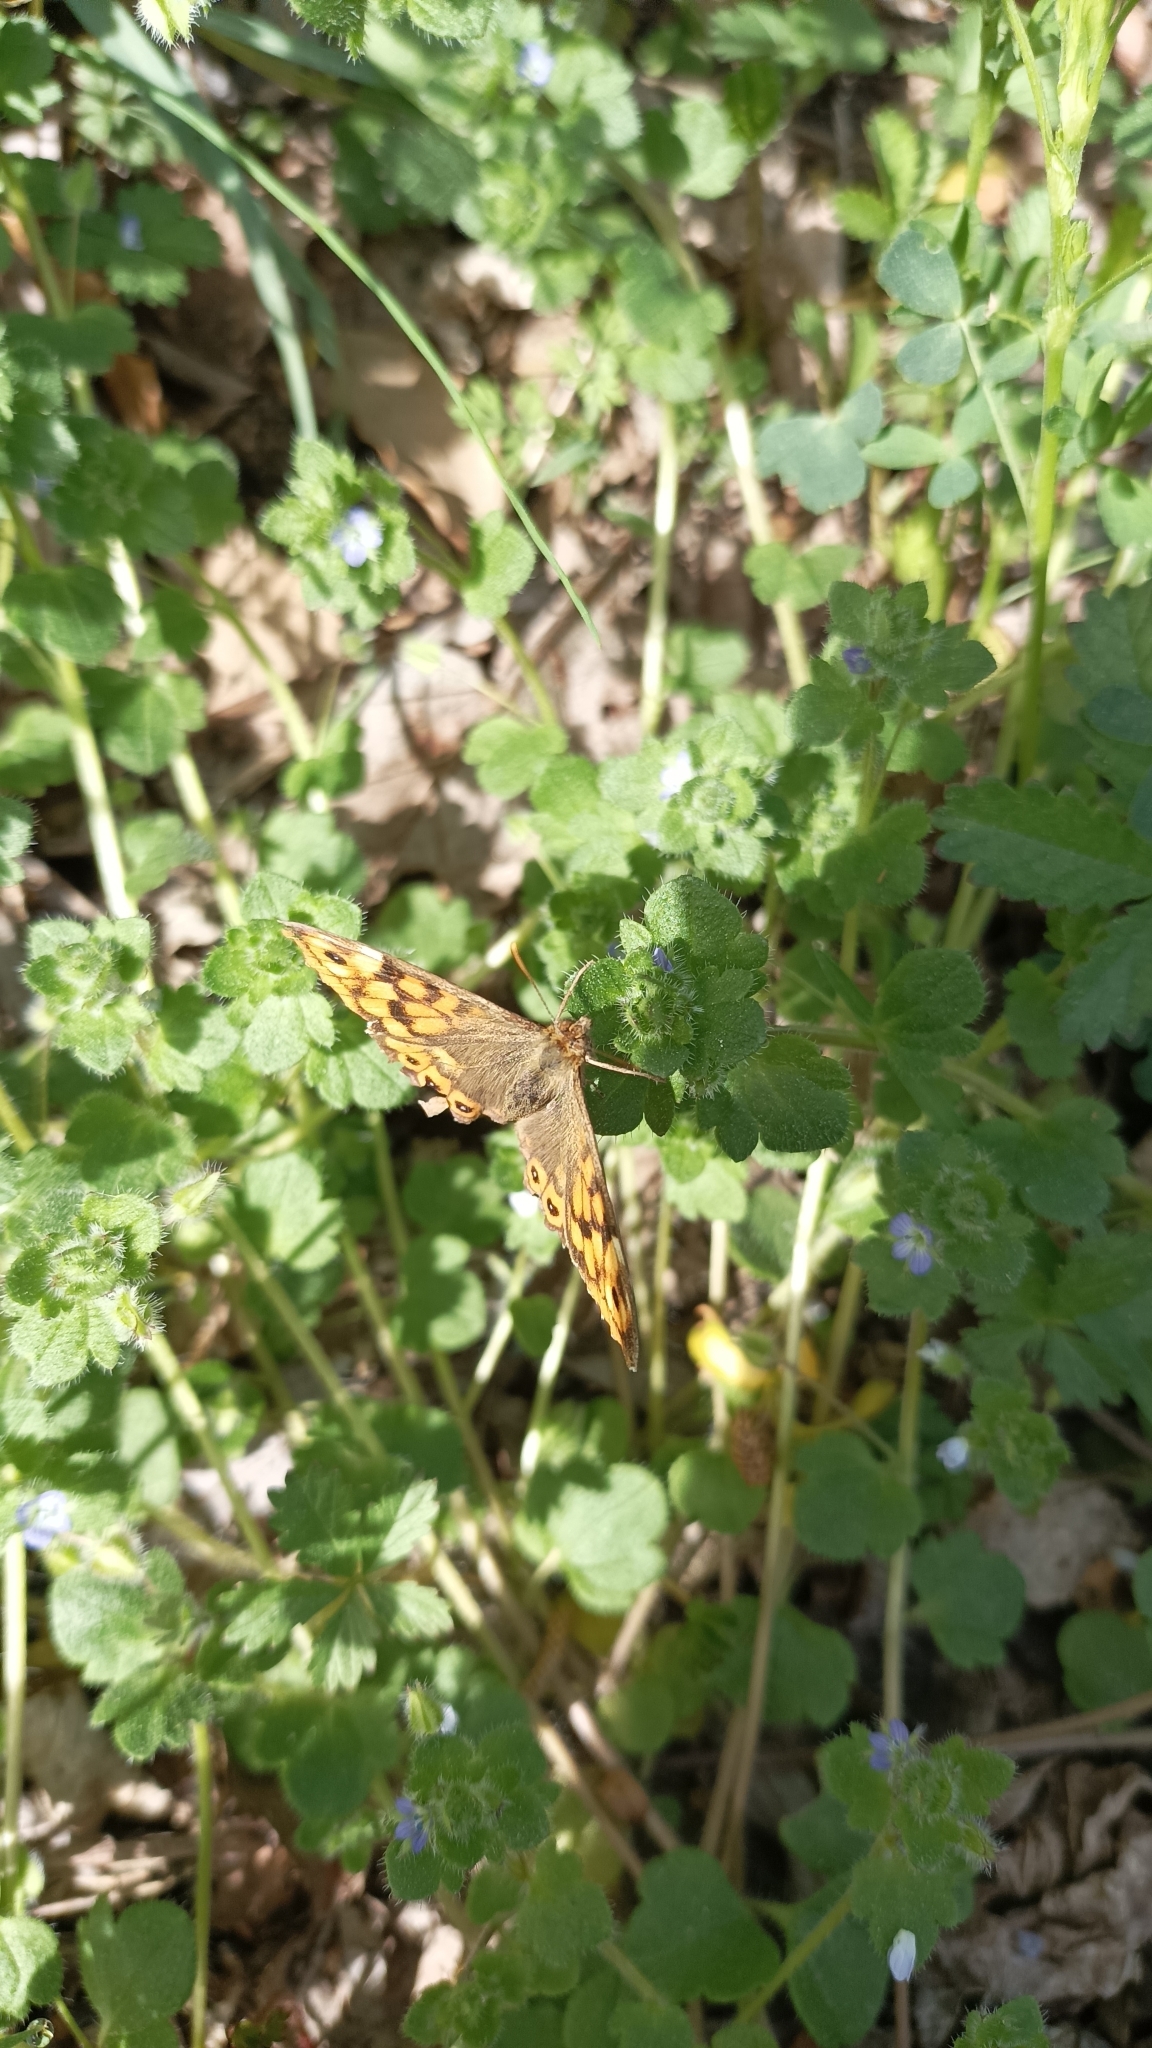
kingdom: Animalia
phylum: Arthropoda
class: Insecta
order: Lepidoptera
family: Nymphalidae
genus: Pararge
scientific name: Pararge aegeria
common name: Speckled wood
